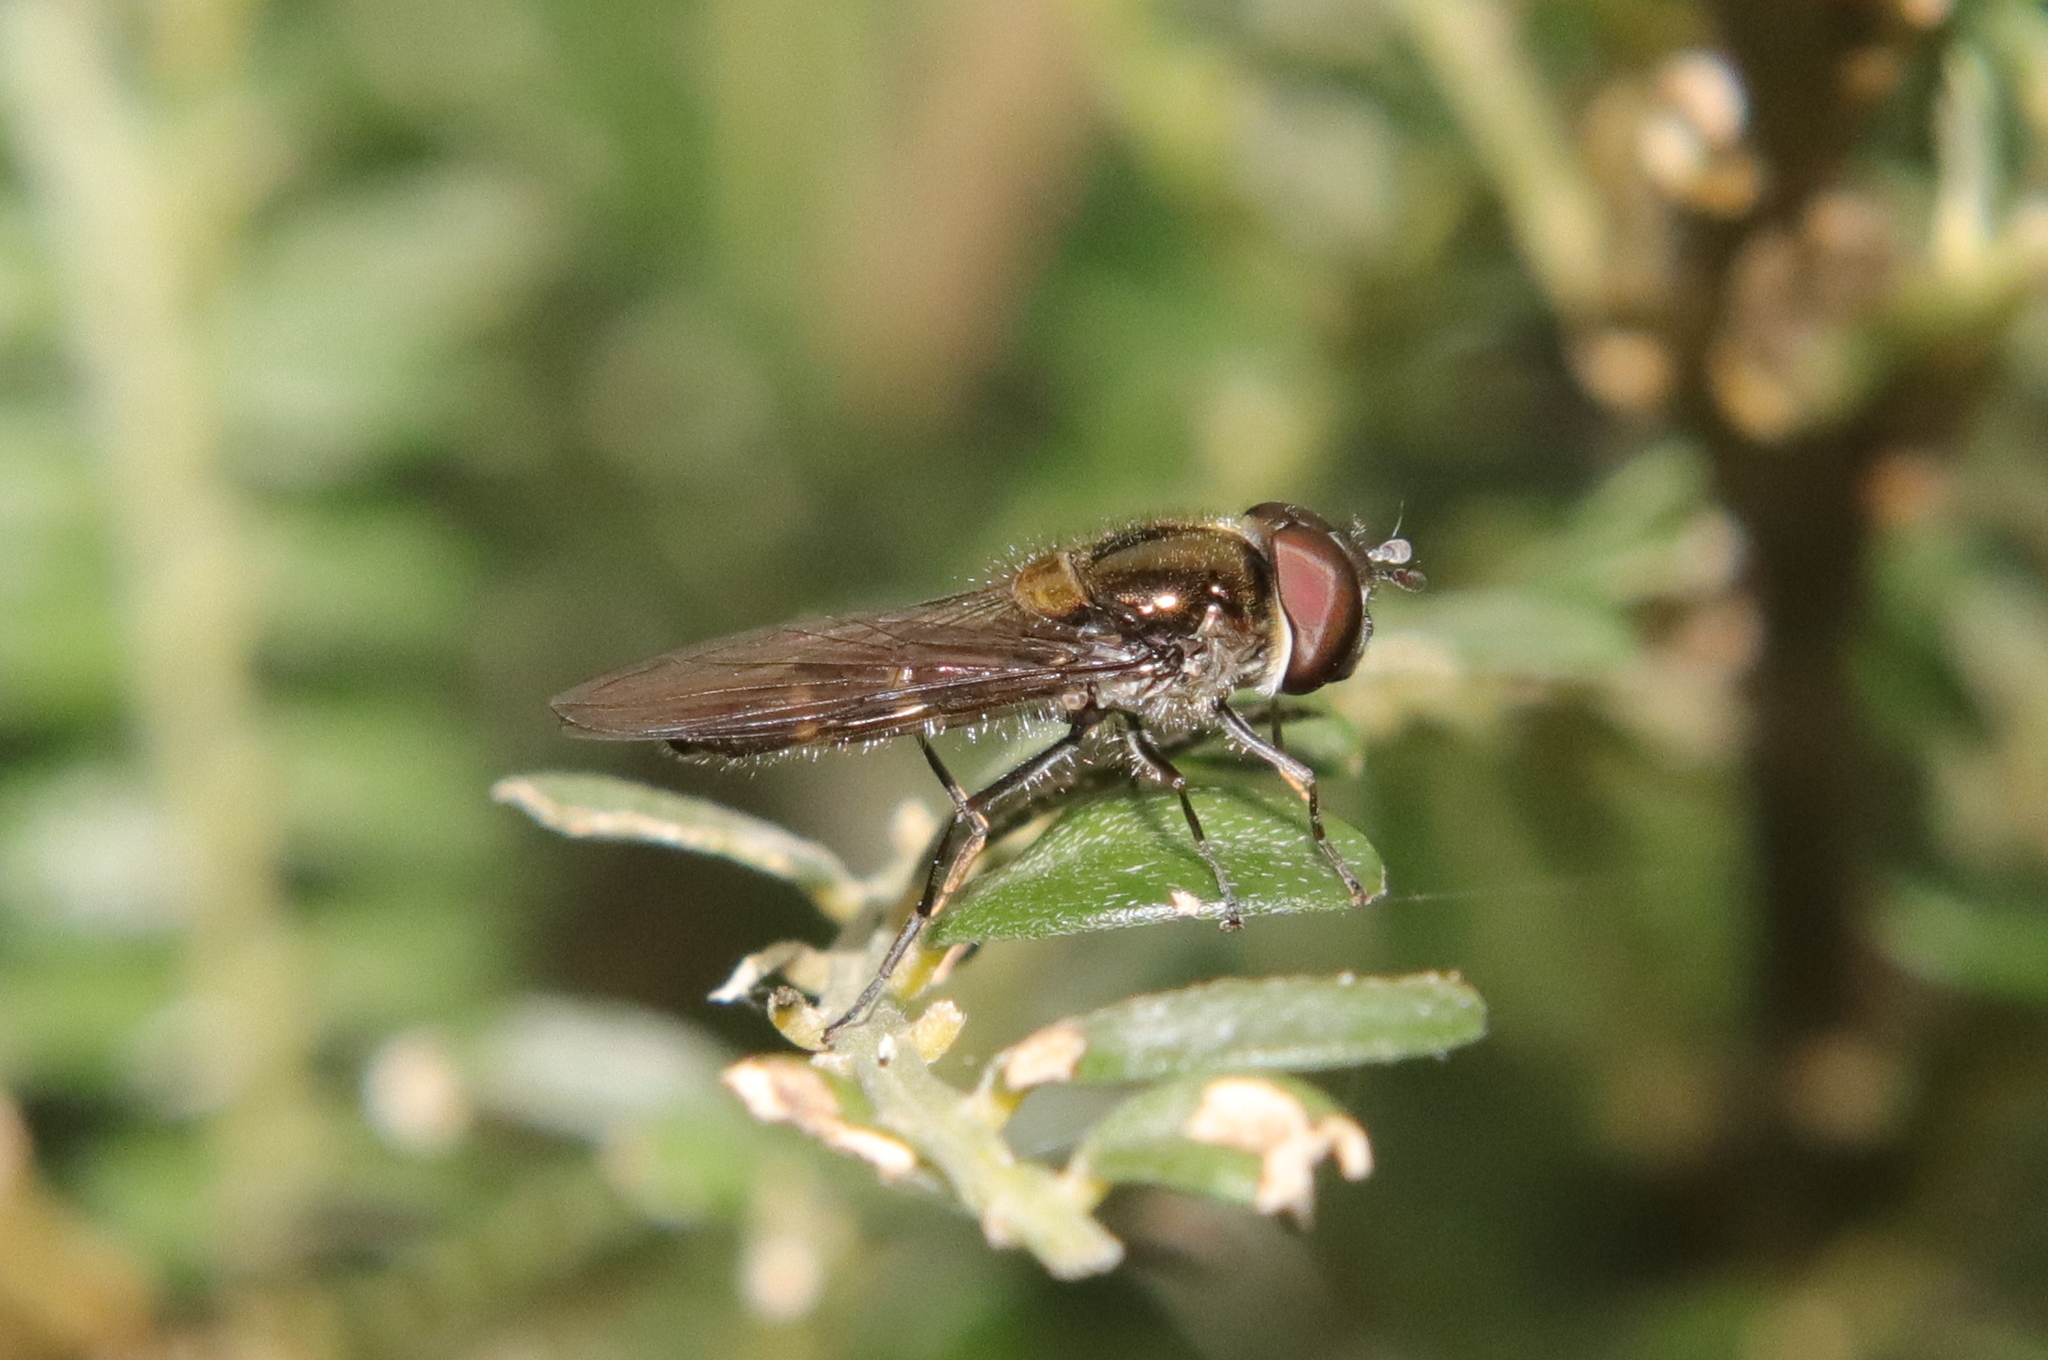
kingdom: Animalia
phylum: Arthropoda
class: Insecta
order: Diptera
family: Syrphidae
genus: Melangyna
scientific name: Melangyna novaezelandiae
